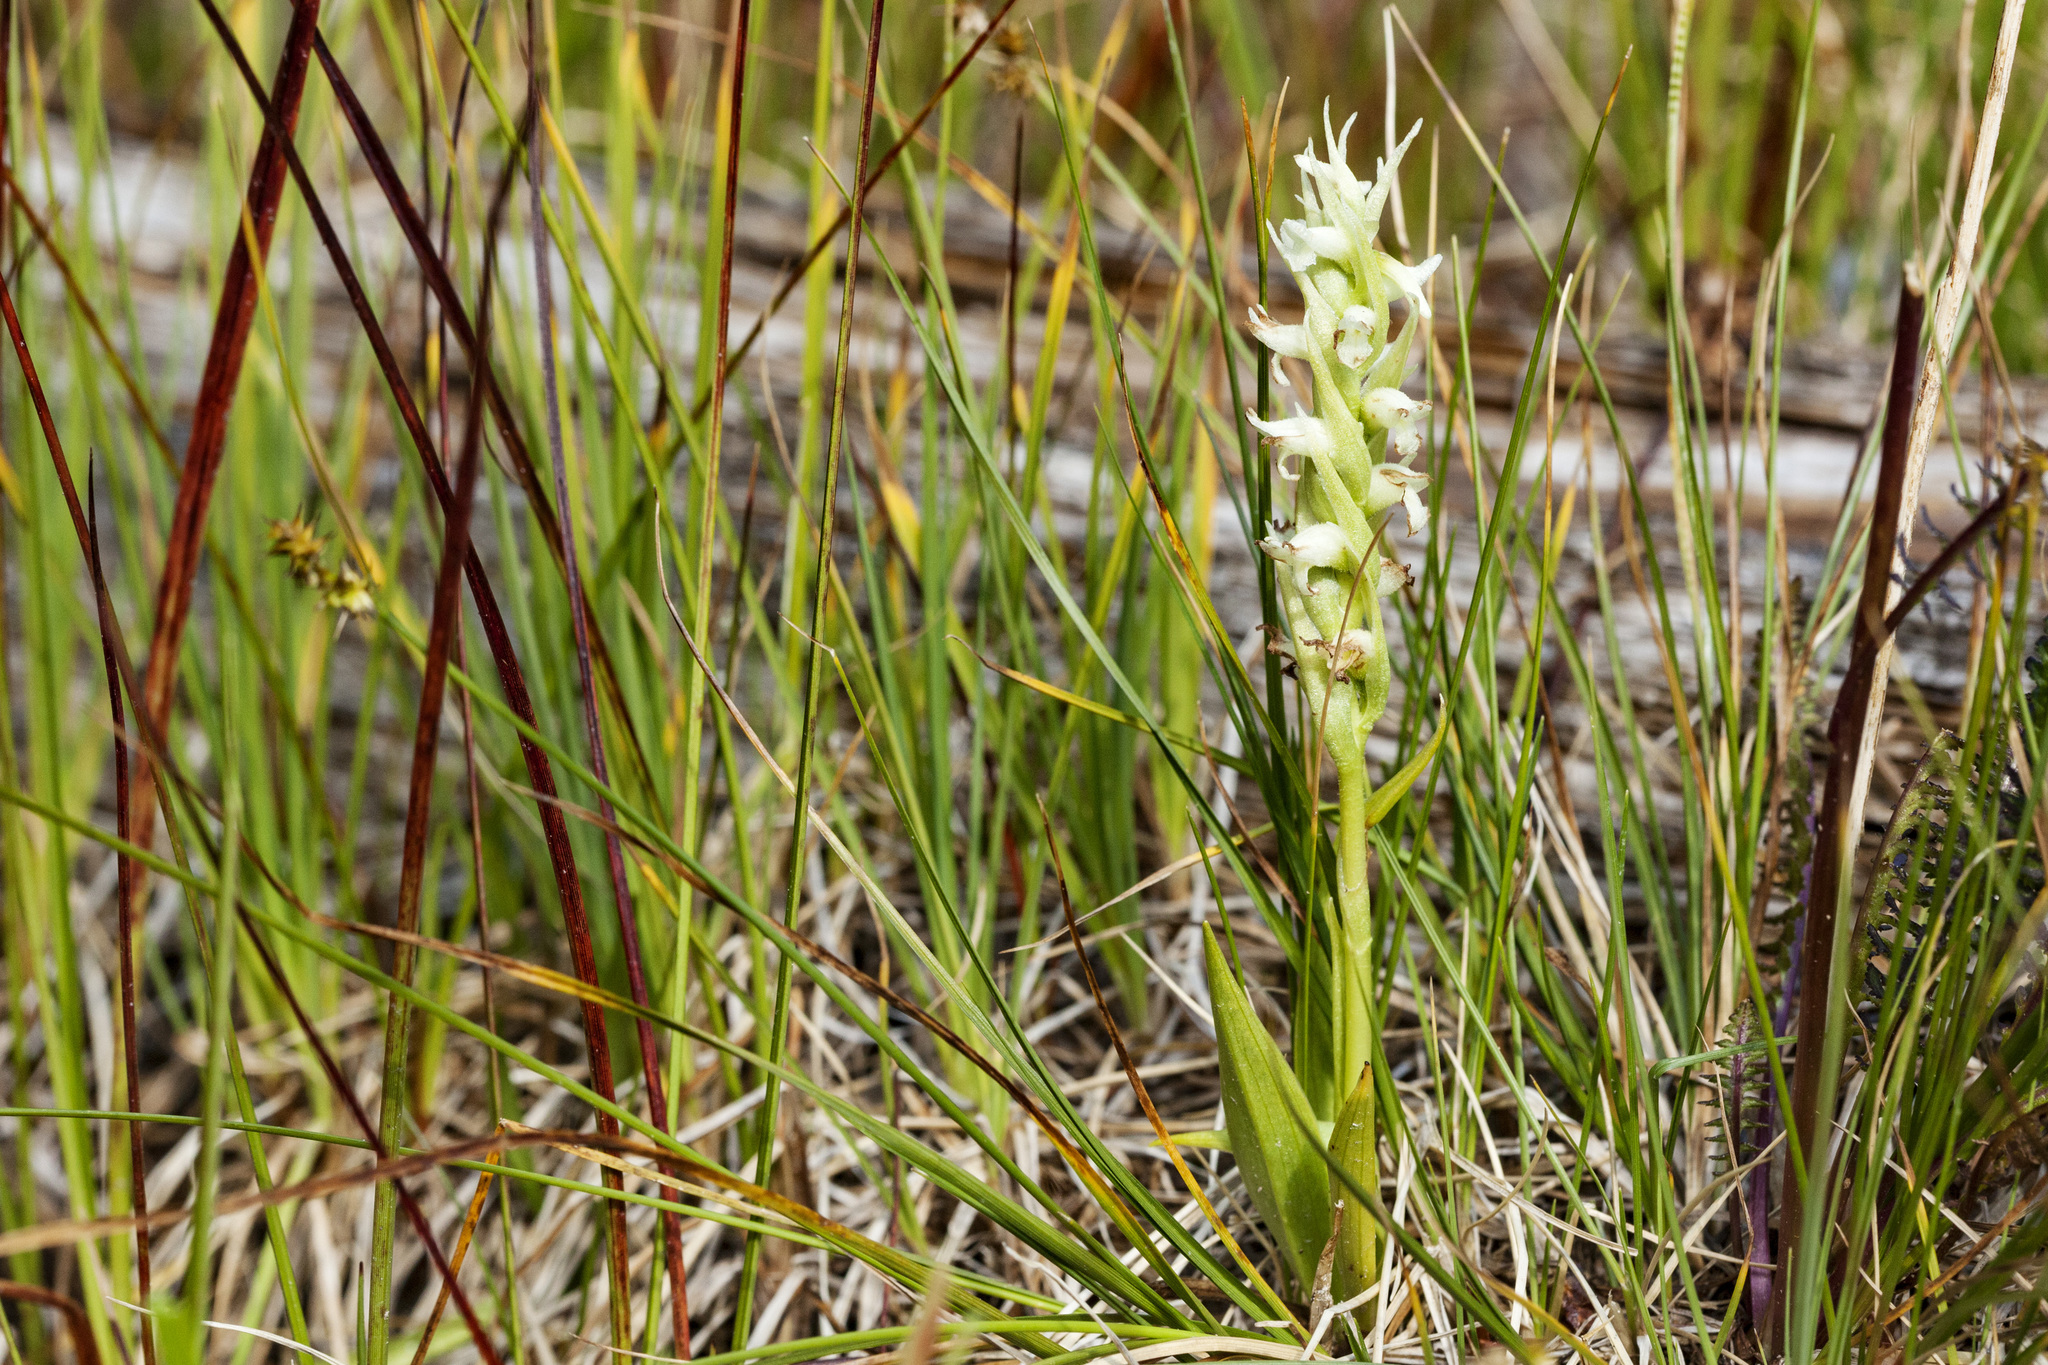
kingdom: Plantae
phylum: Tracheophyta
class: Liliopsida
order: Asparagales
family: Orchidaceae
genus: Spiranthes
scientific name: Spiranthes romanzoffiana
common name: Irish lady's-tresses
